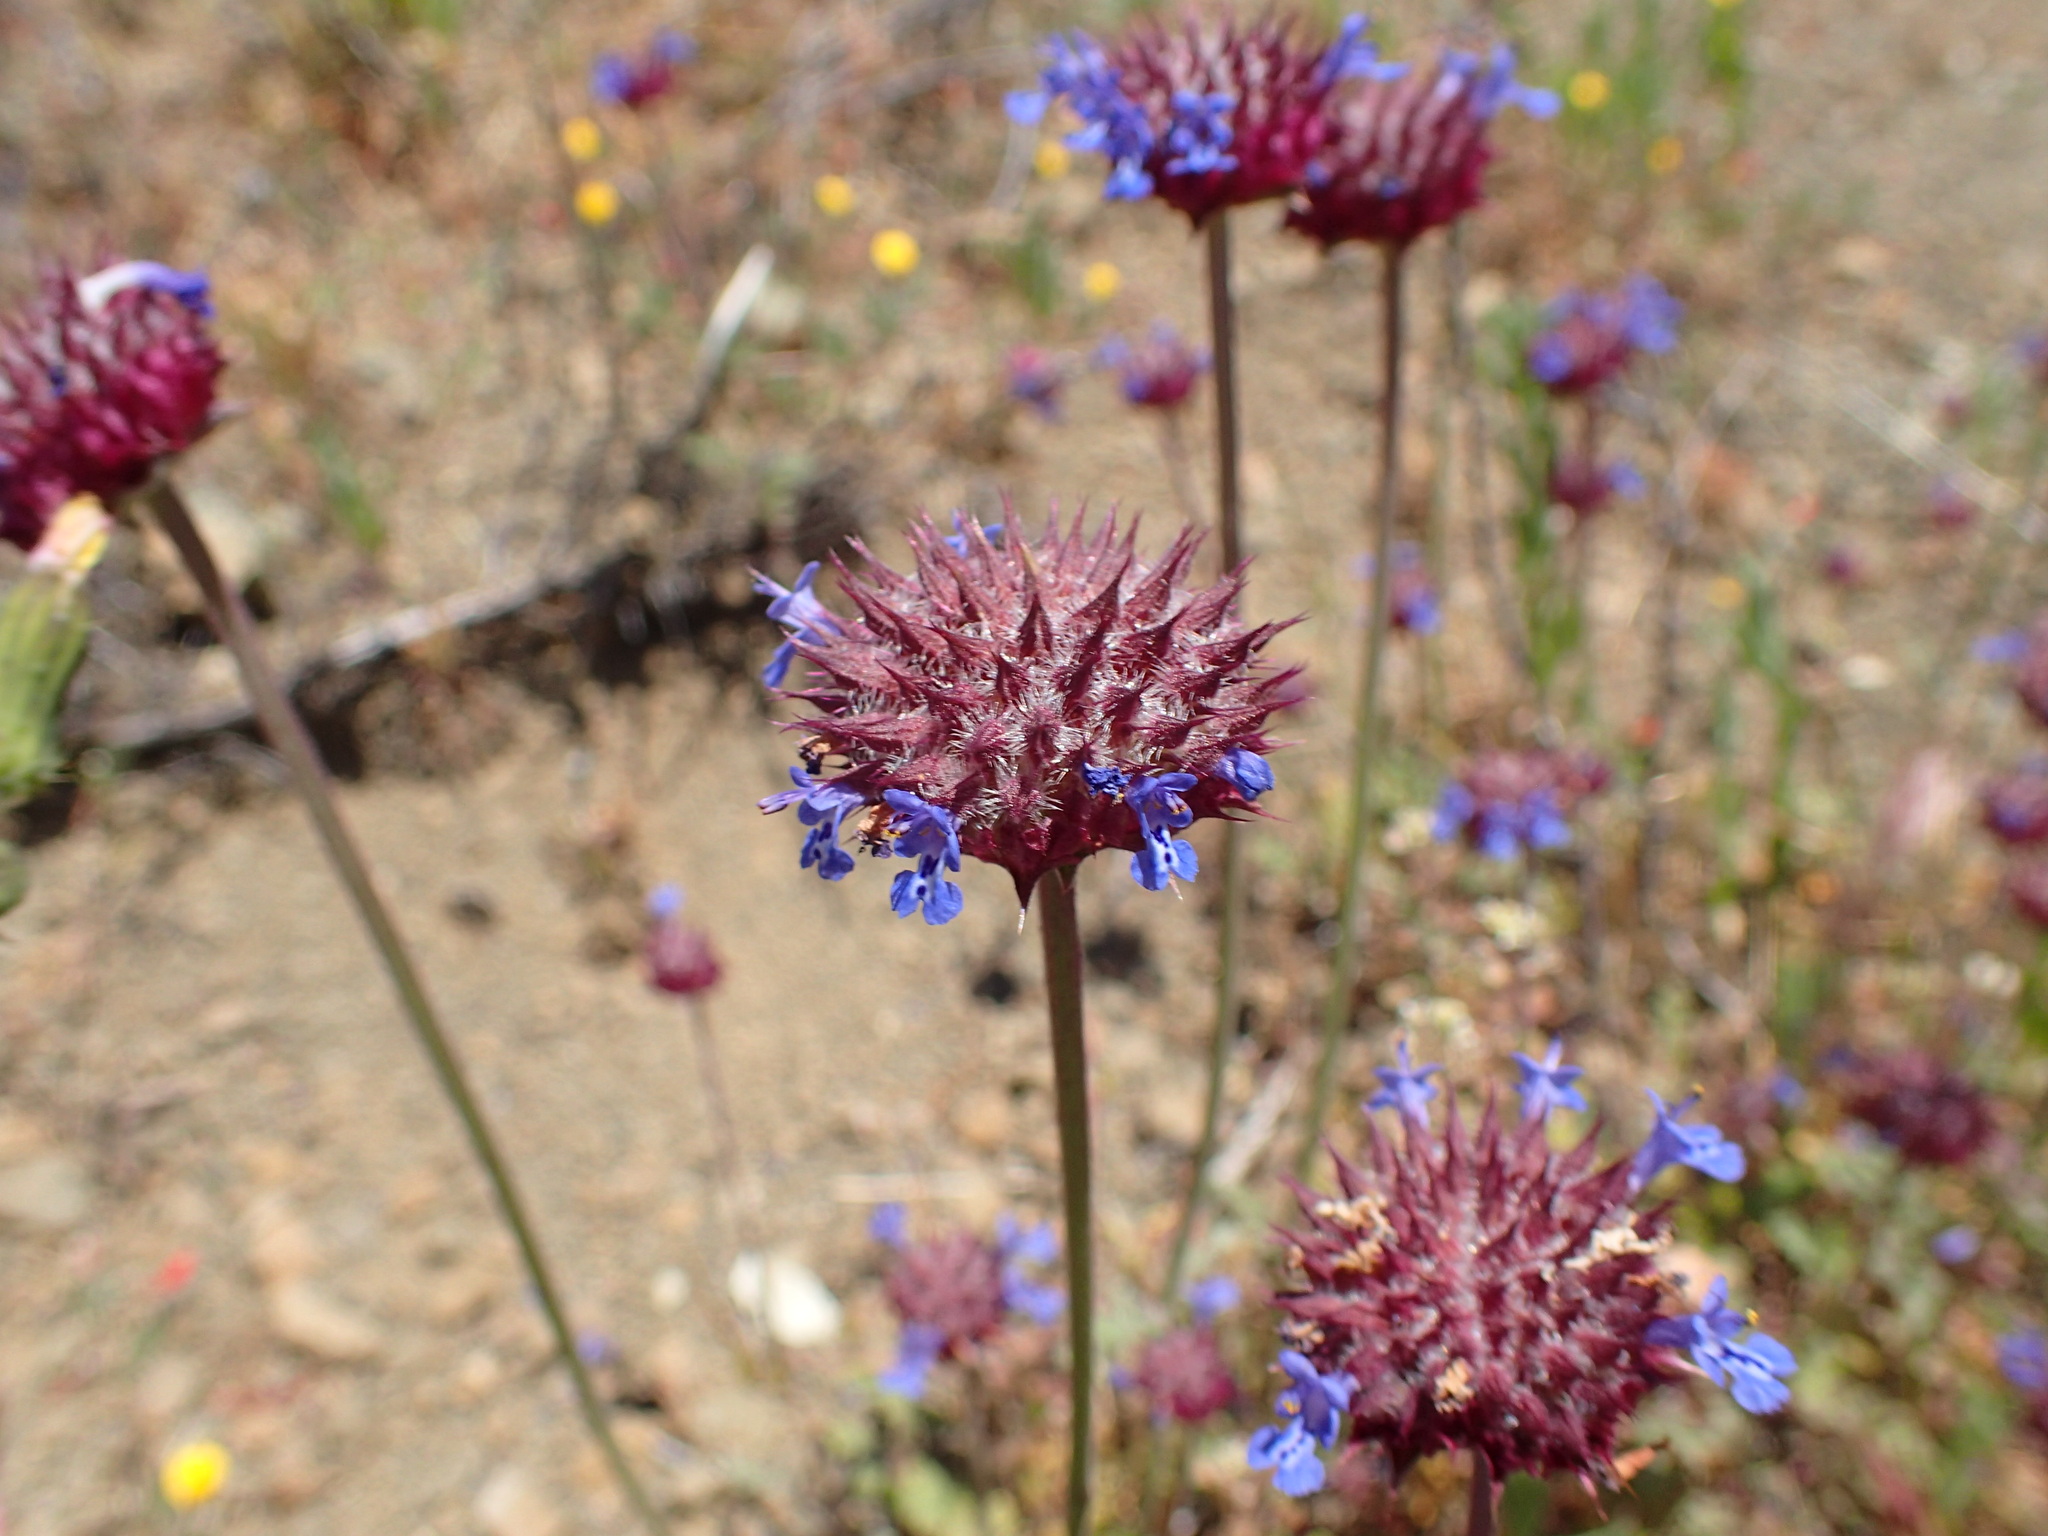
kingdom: Plantae
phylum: Tracheophyta
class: Magnoliopsida
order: Lamiales
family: Lamiaceae
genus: Salvia
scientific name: Salvia columbariae
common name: Chia
